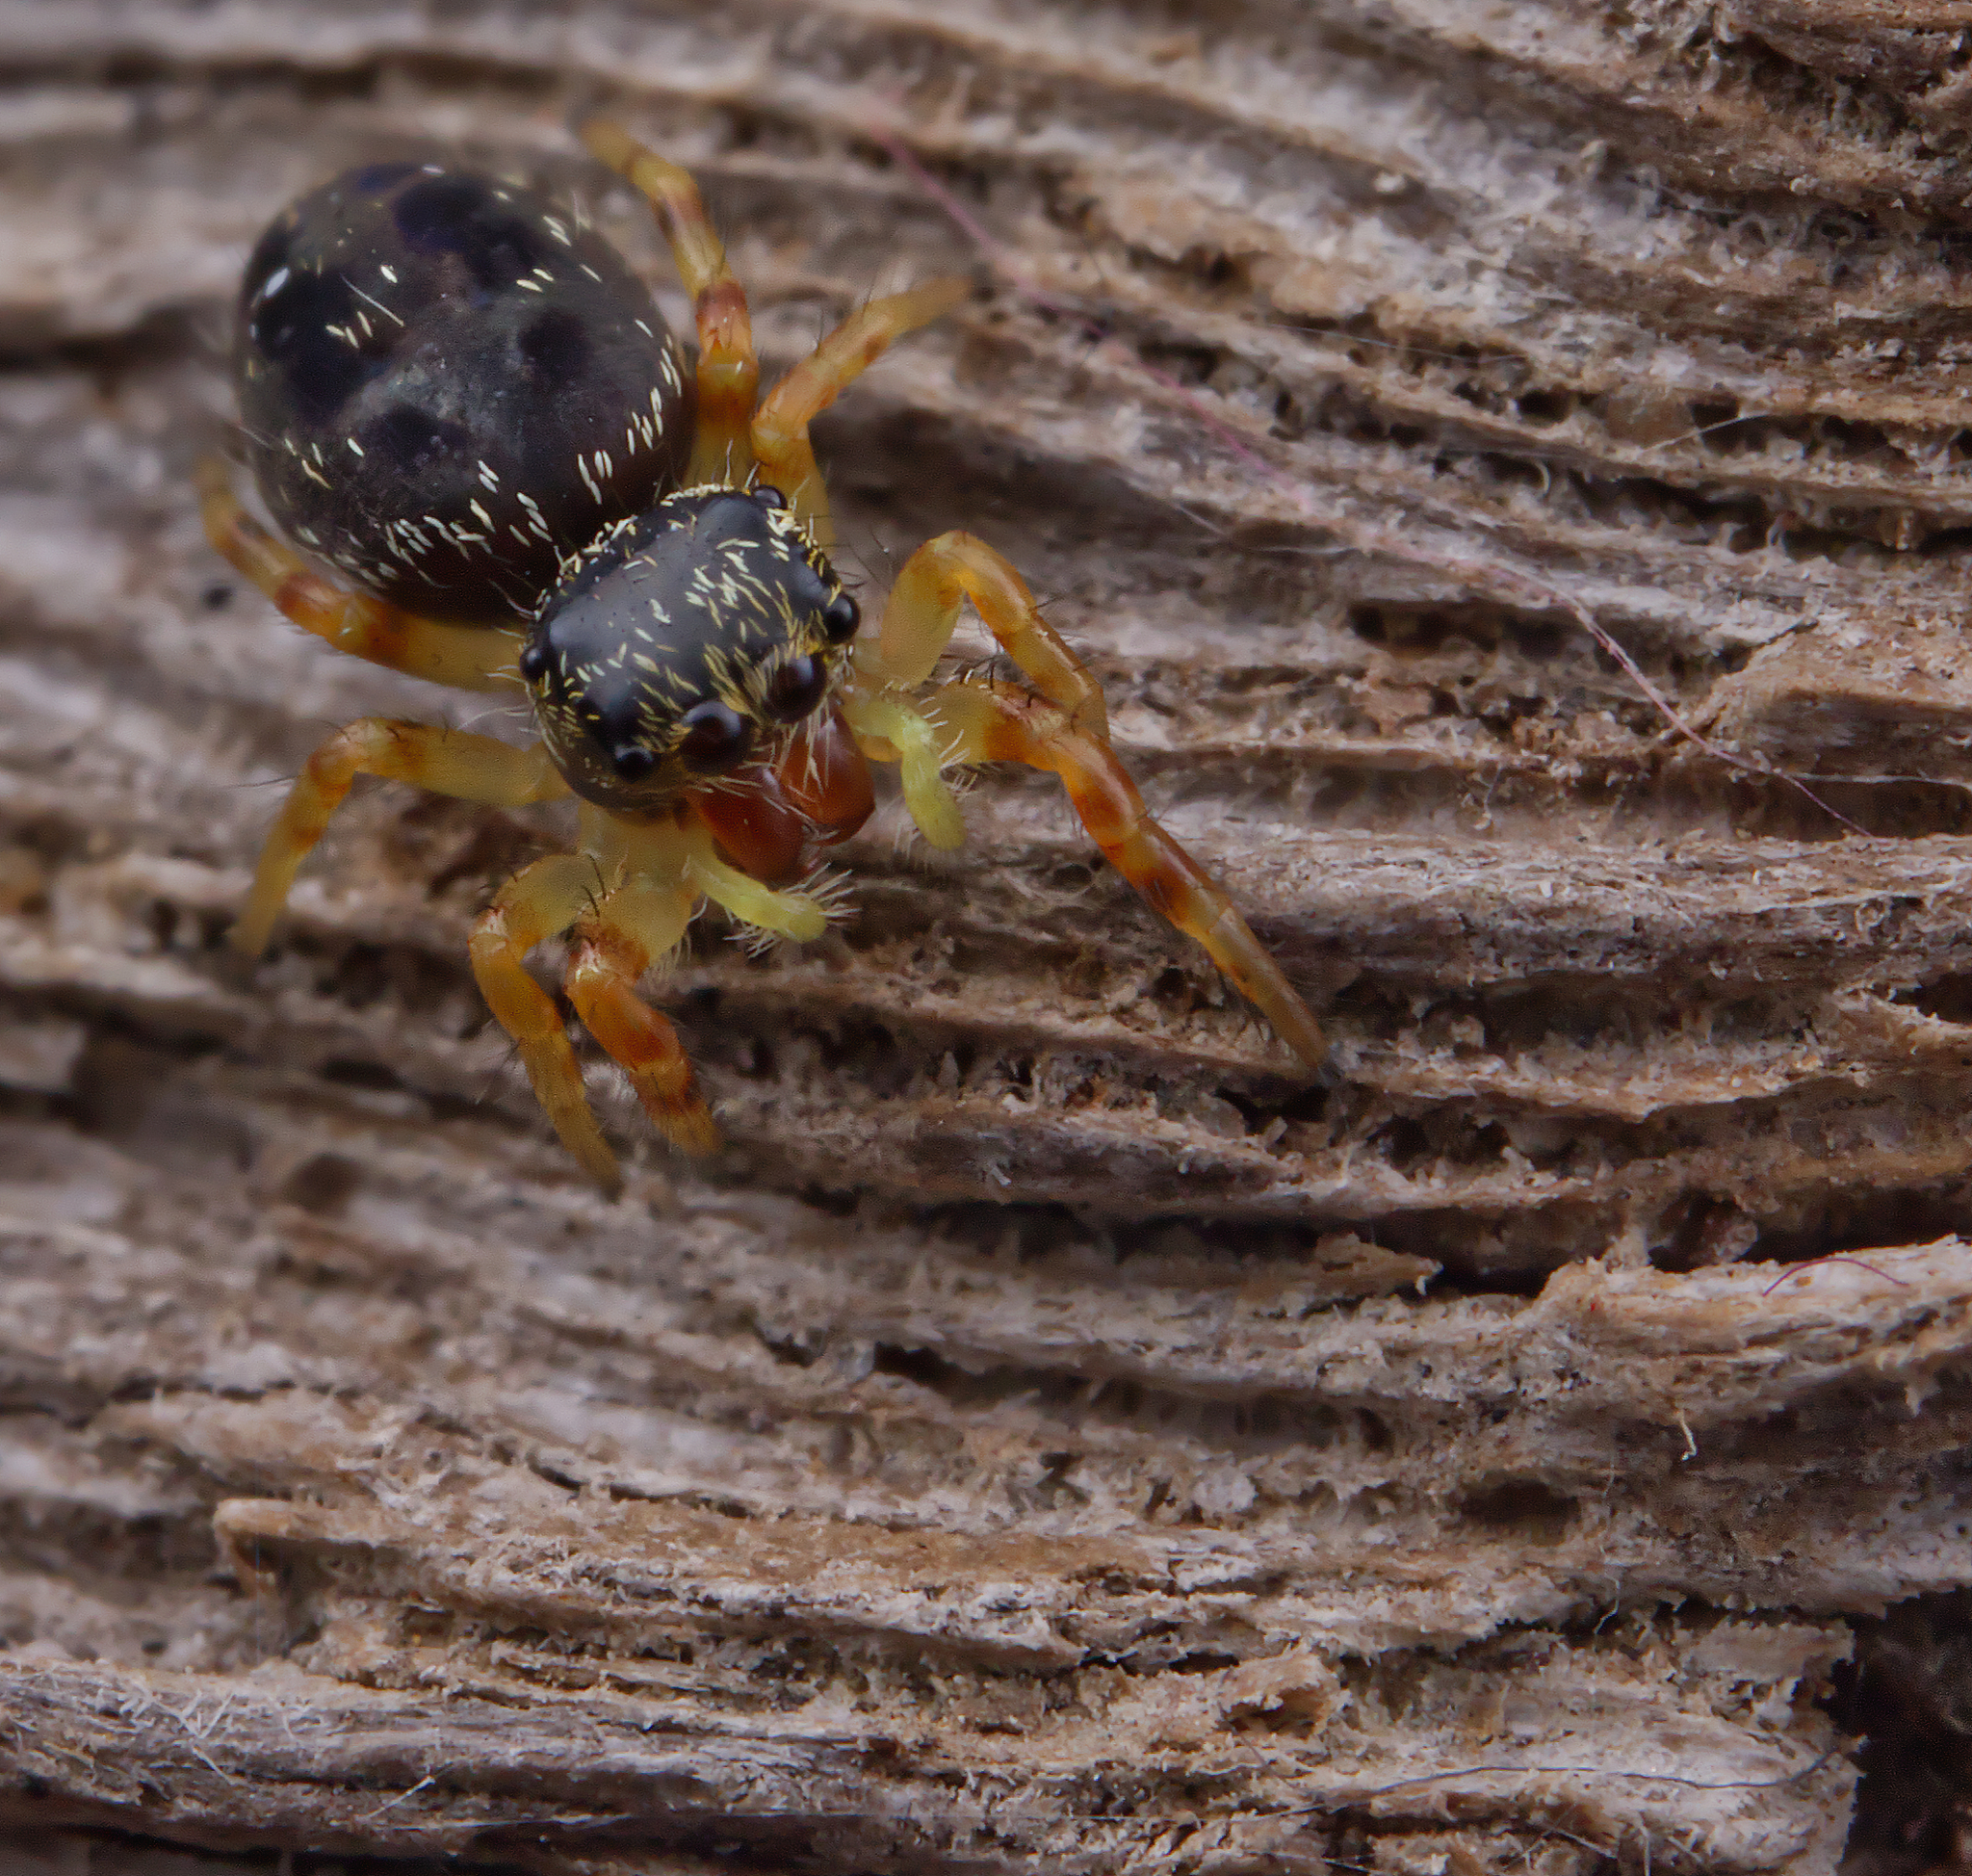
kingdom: Animalia
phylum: Arthropoda
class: Arachnida
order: Araneae
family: Salticidae
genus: Phidippus
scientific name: Phidippus princeps
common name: Grayish jumping spider
